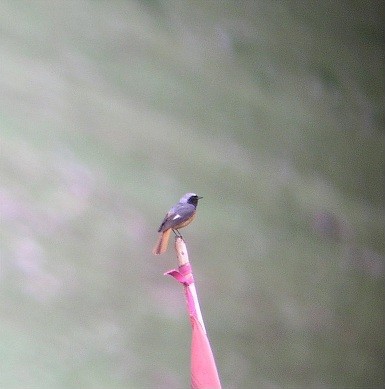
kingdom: Animalia
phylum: Chordata
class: Aves
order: Passeriformes
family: Muscicapidae
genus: Phoenicurus
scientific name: Phoenicurus hodgsoni
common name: Hodgson's redstart
